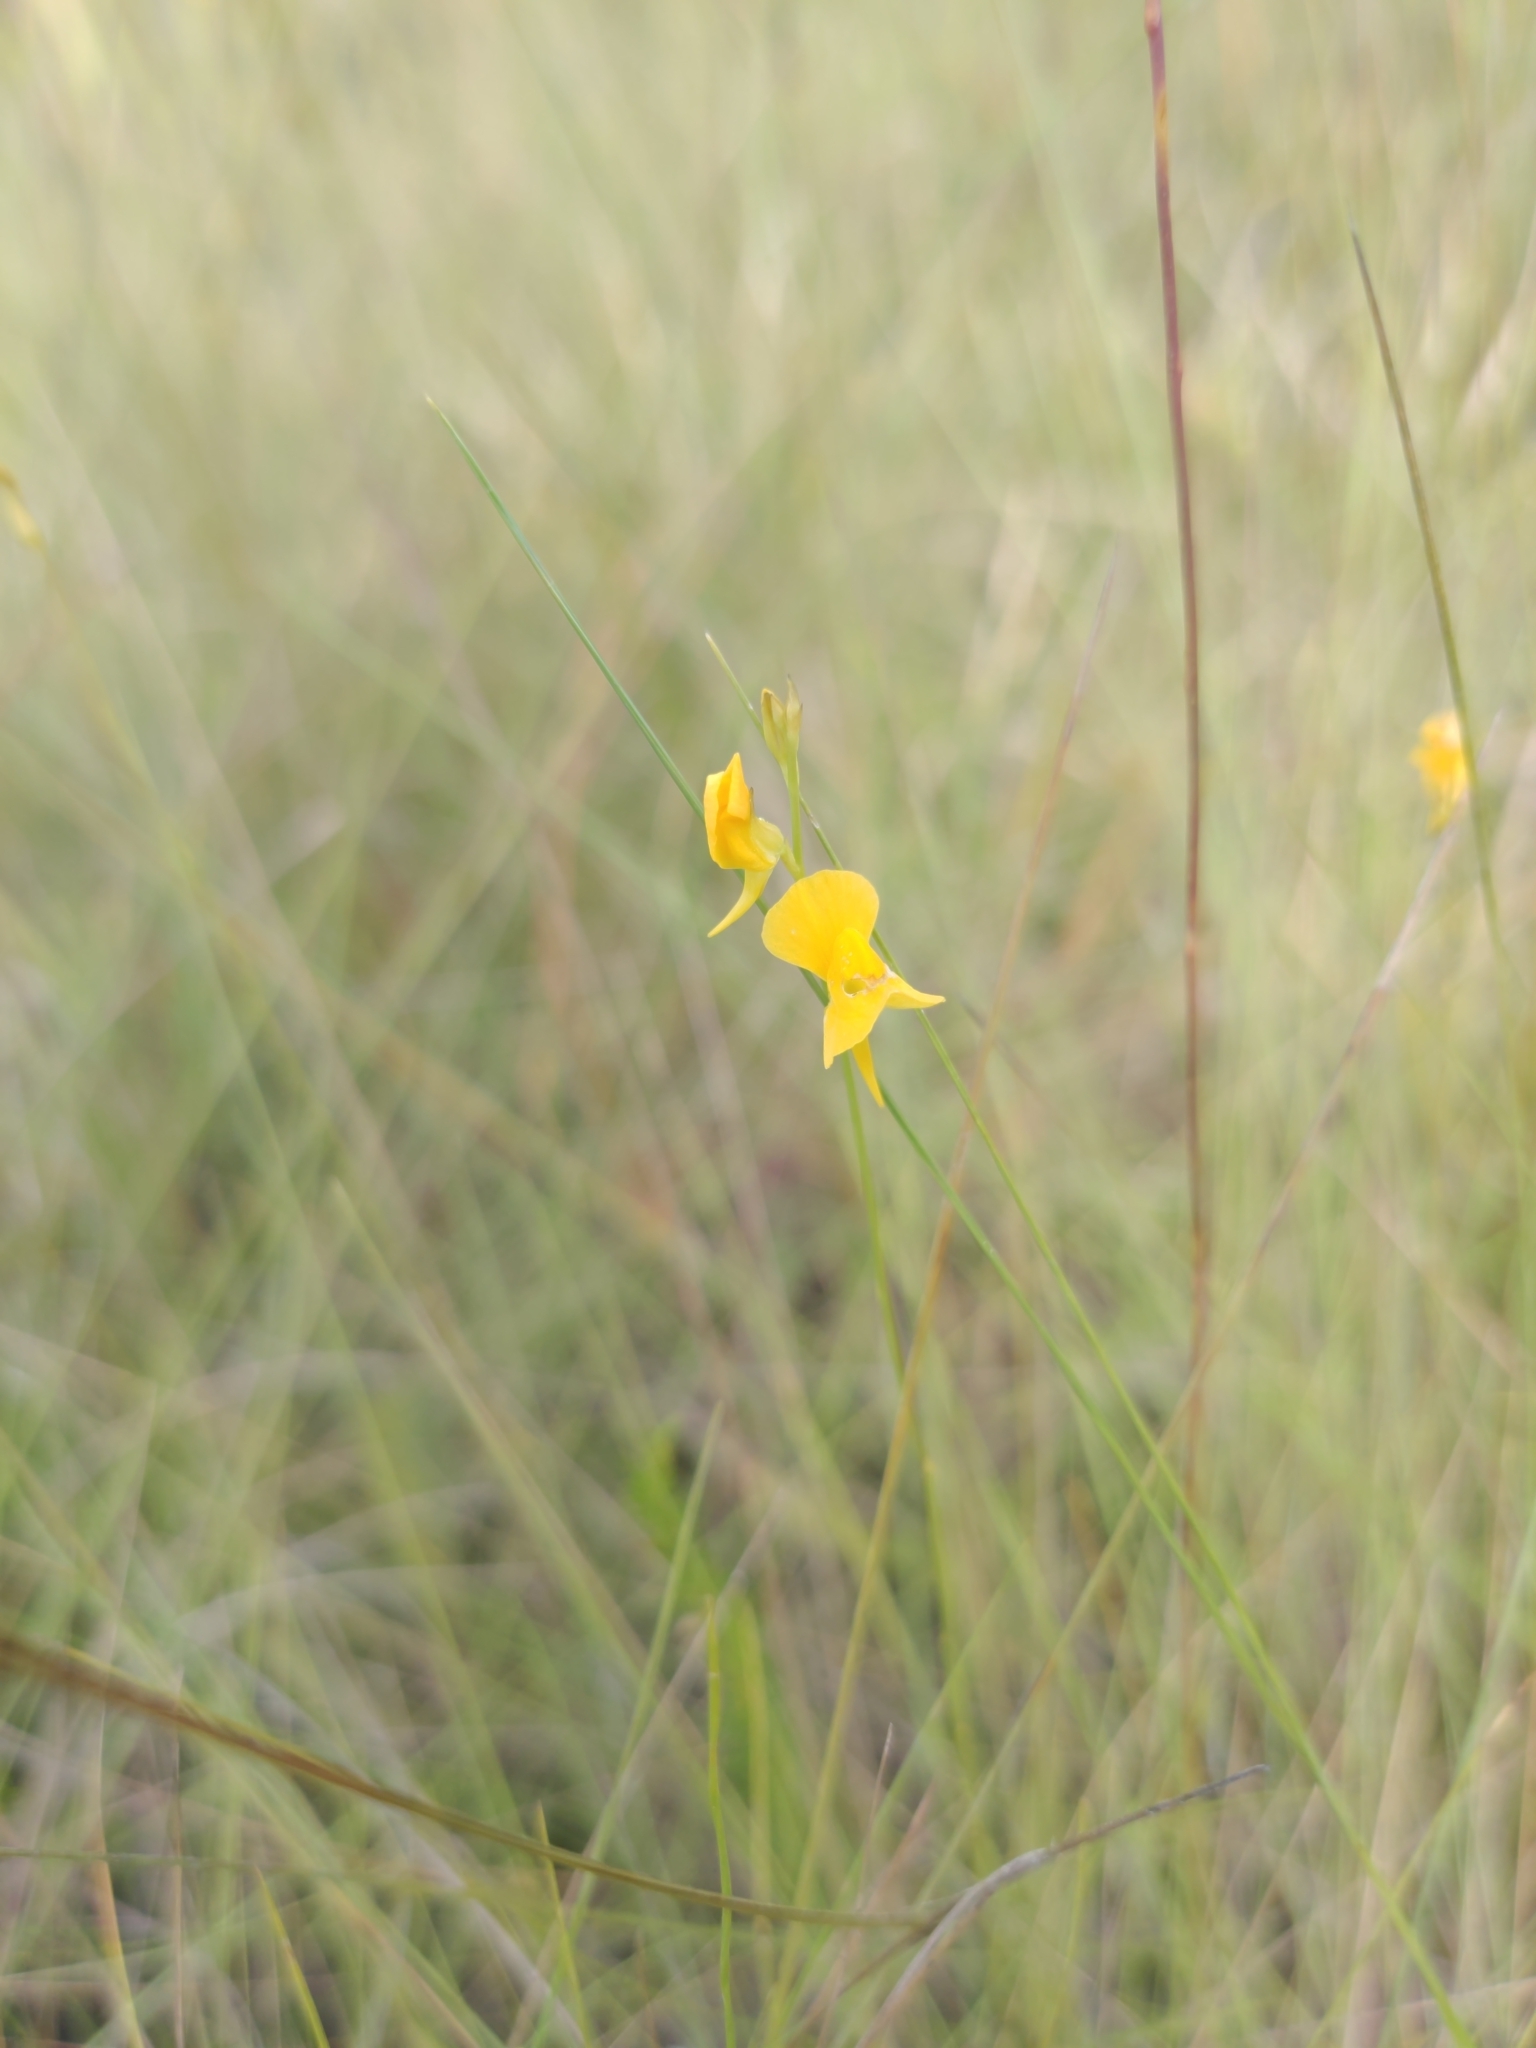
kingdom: Plantae
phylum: Tracheophyta
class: Magnoliopsida
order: Lamiales
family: Lentibulariaceae
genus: Utricularia
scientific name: Utricularia juncea
